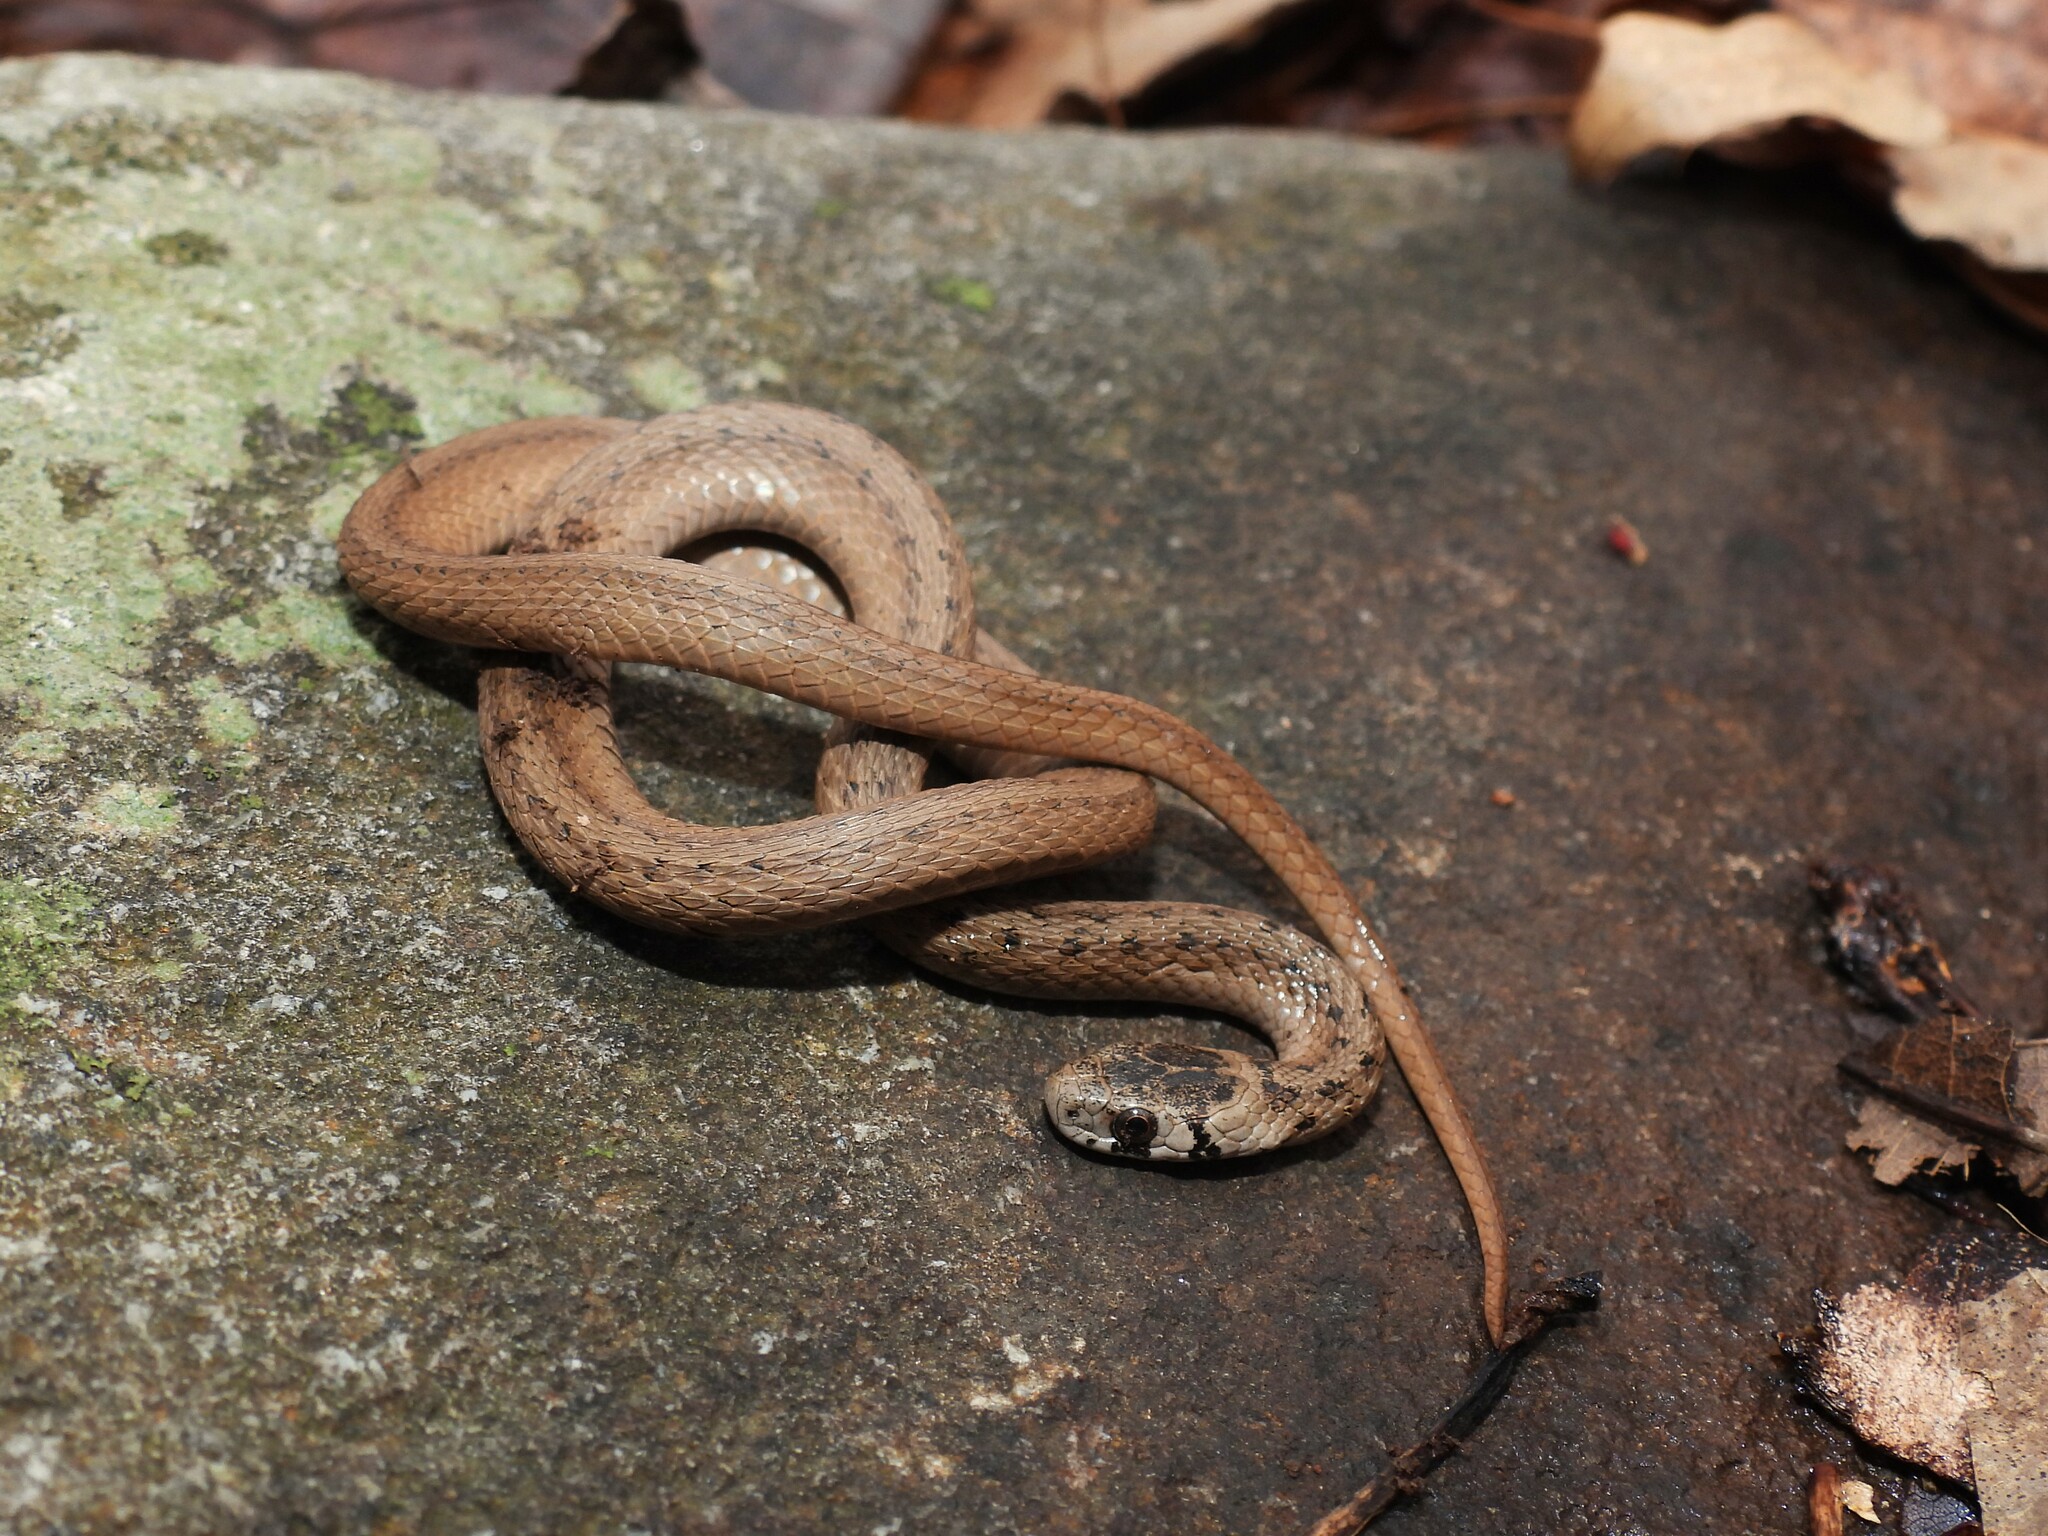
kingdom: Animalia
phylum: Chordata
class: Squamata
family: Colubridae
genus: Storeria
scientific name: Storeria dekayi
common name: (dekay’s) brown snake
